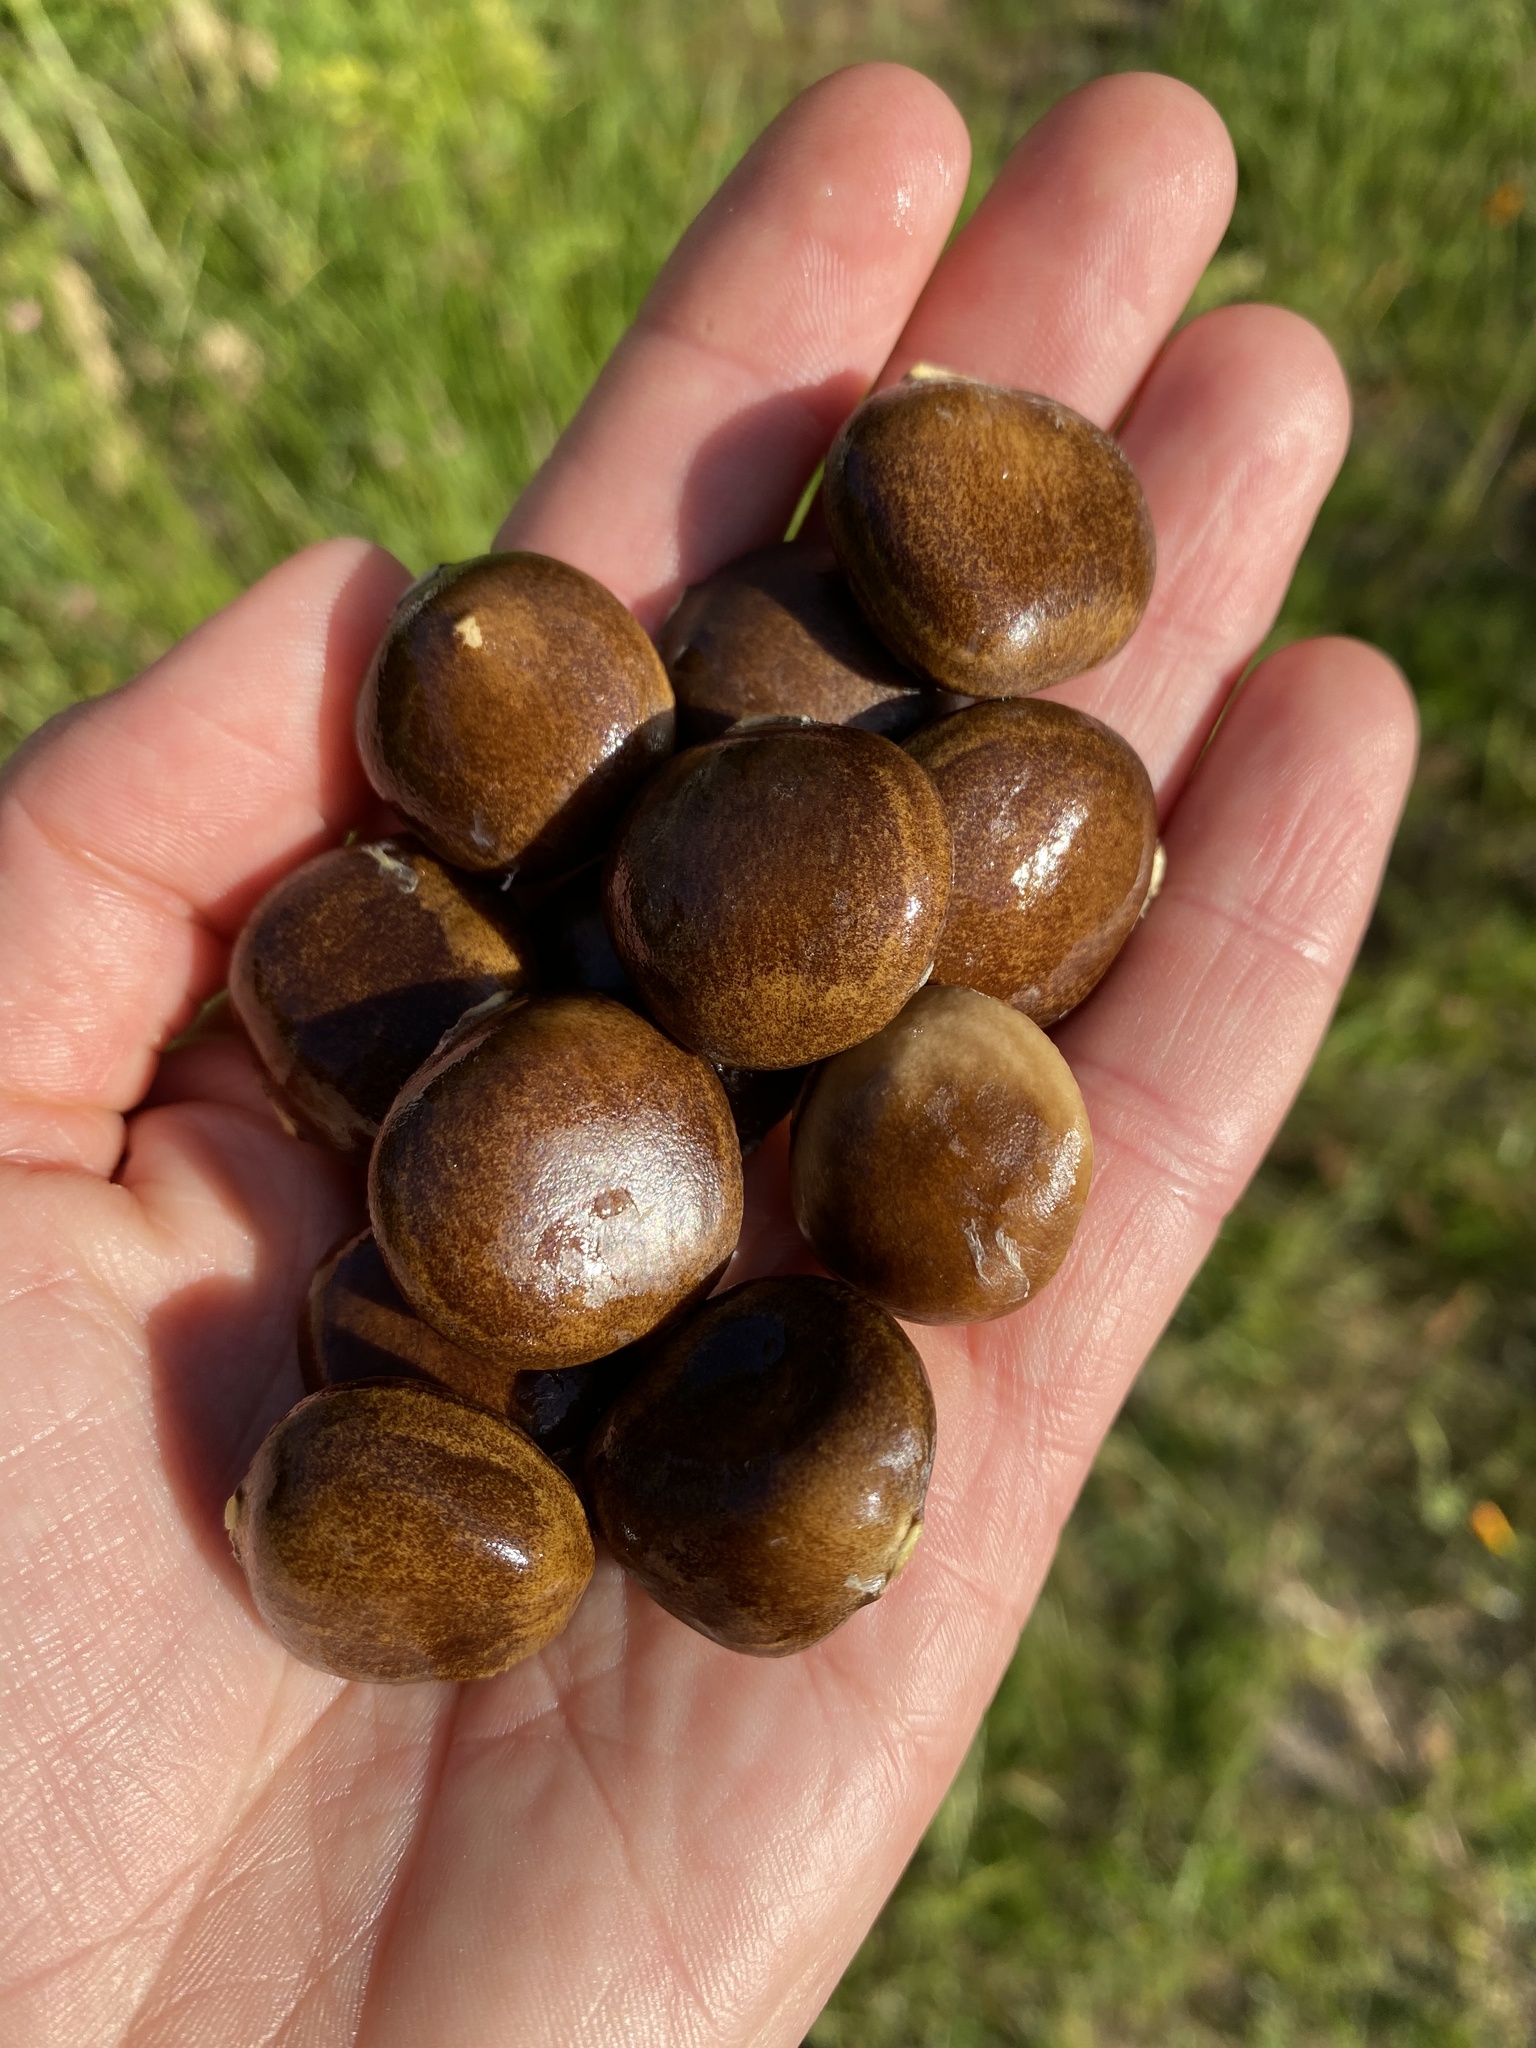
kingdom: Plantae
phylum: Tracheophyta
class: Magnoliopsida
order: Cucurbitales
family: Cucurbitaceae
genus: Marah
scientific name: Marah oregana
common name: Coastal manroot
